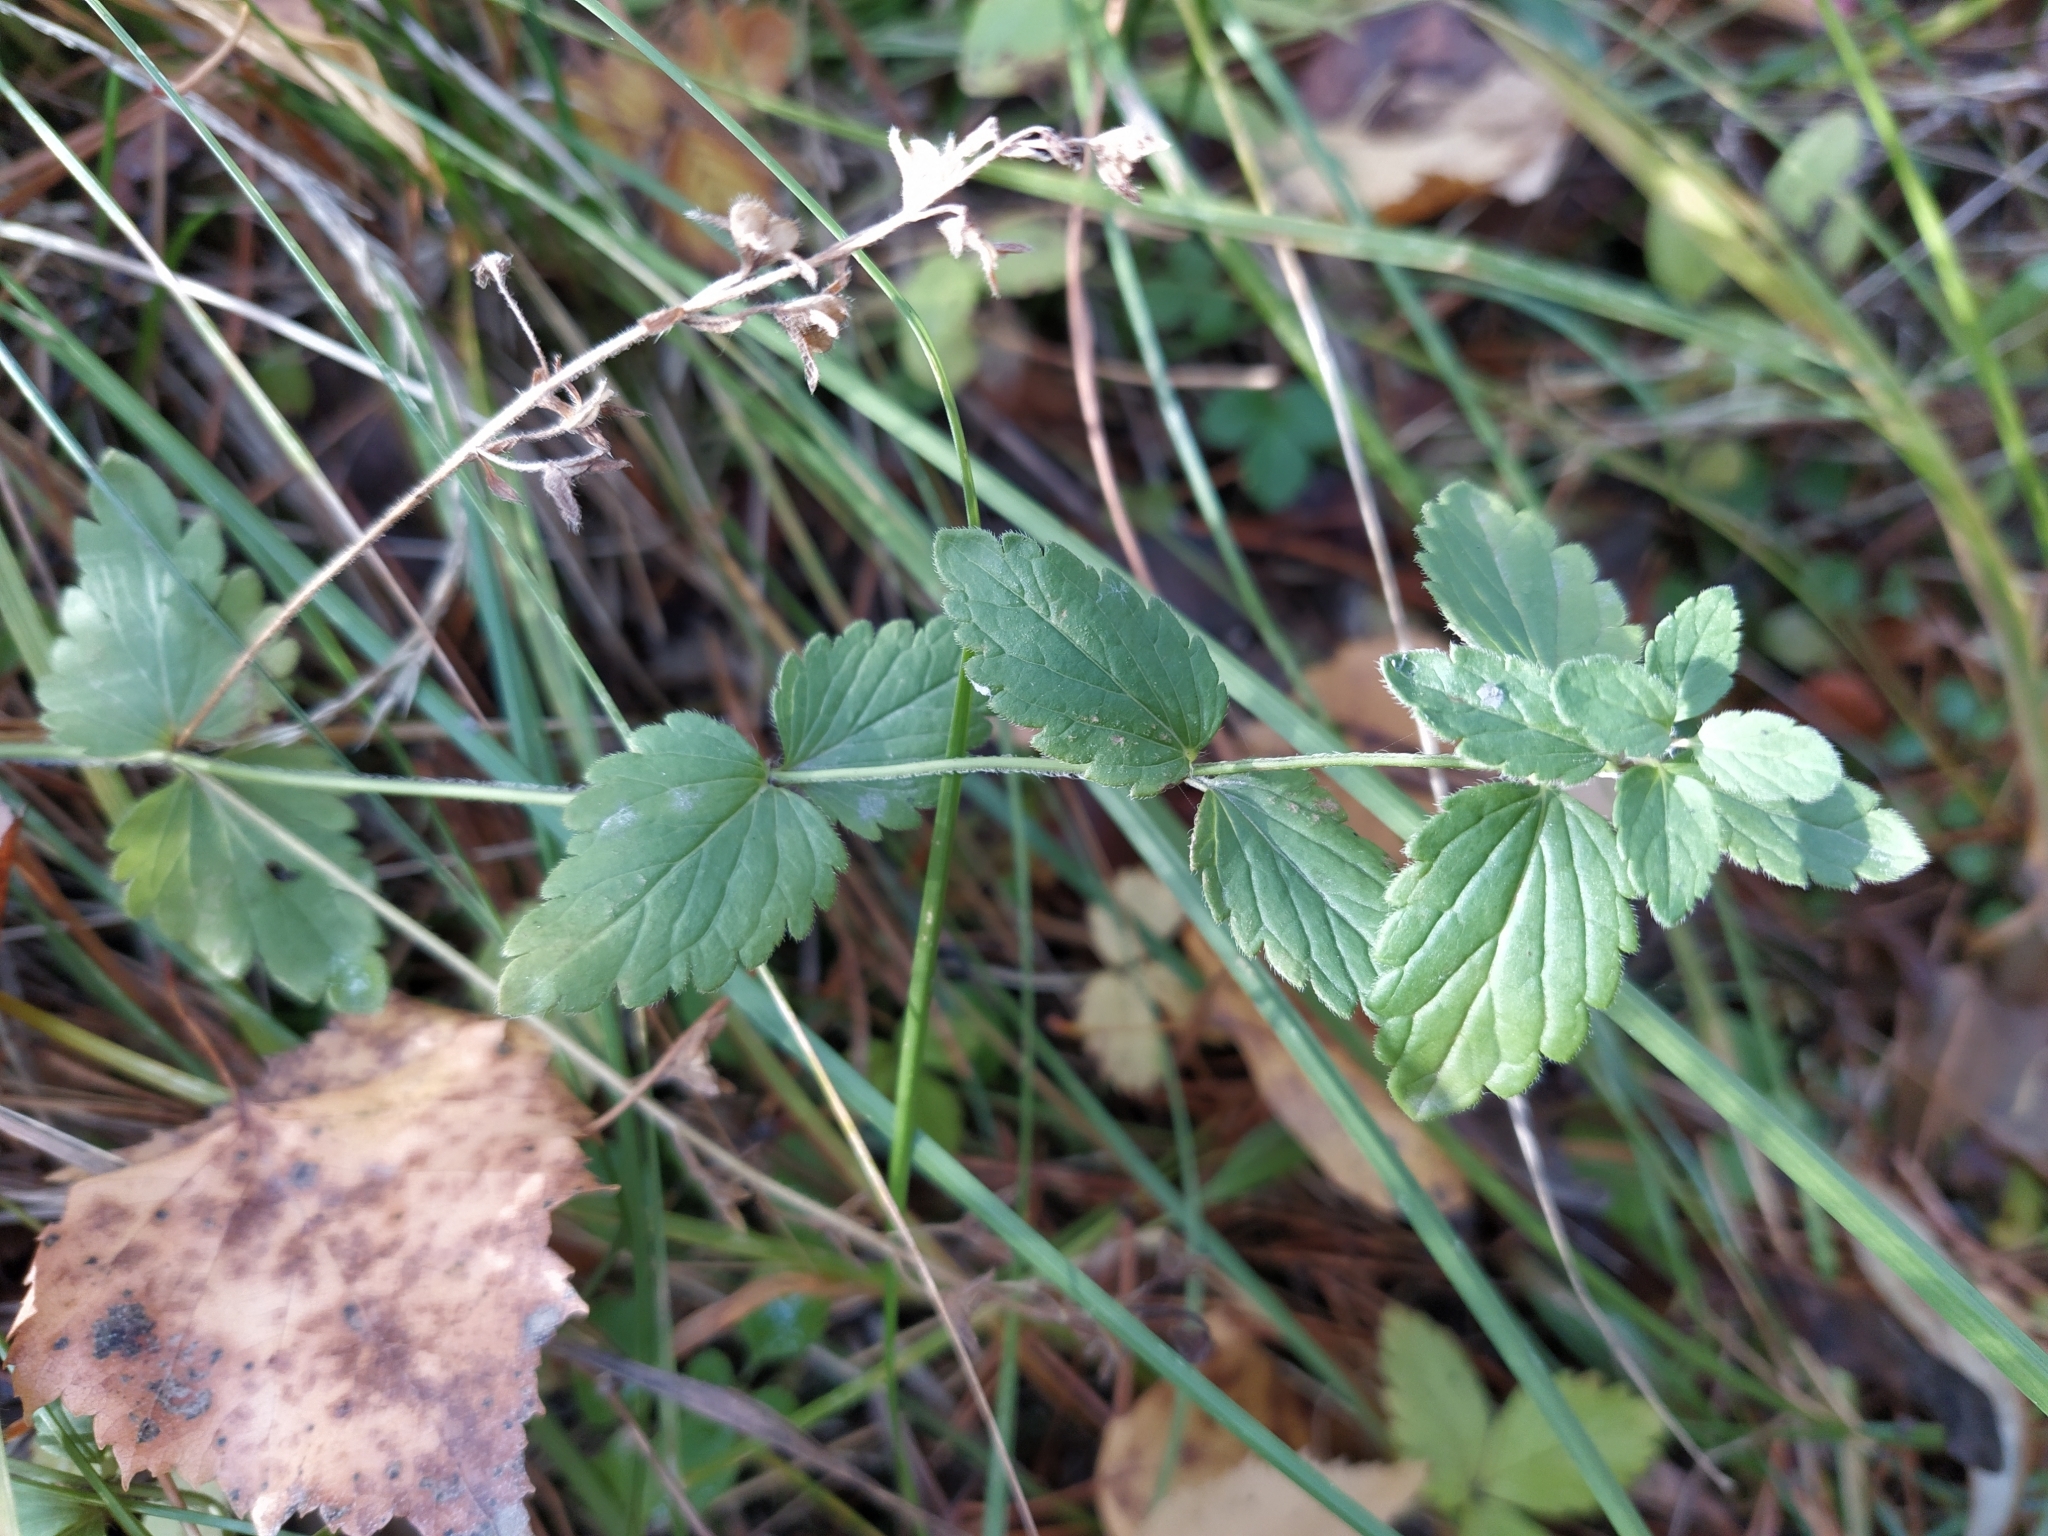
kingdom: Plantae
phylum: Tracheophyta
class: Magnoliopsida
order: Lamiales
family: Plantaginaceae
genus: Veronica
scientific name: Veronica chamaedrys
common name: Germander speedwell
